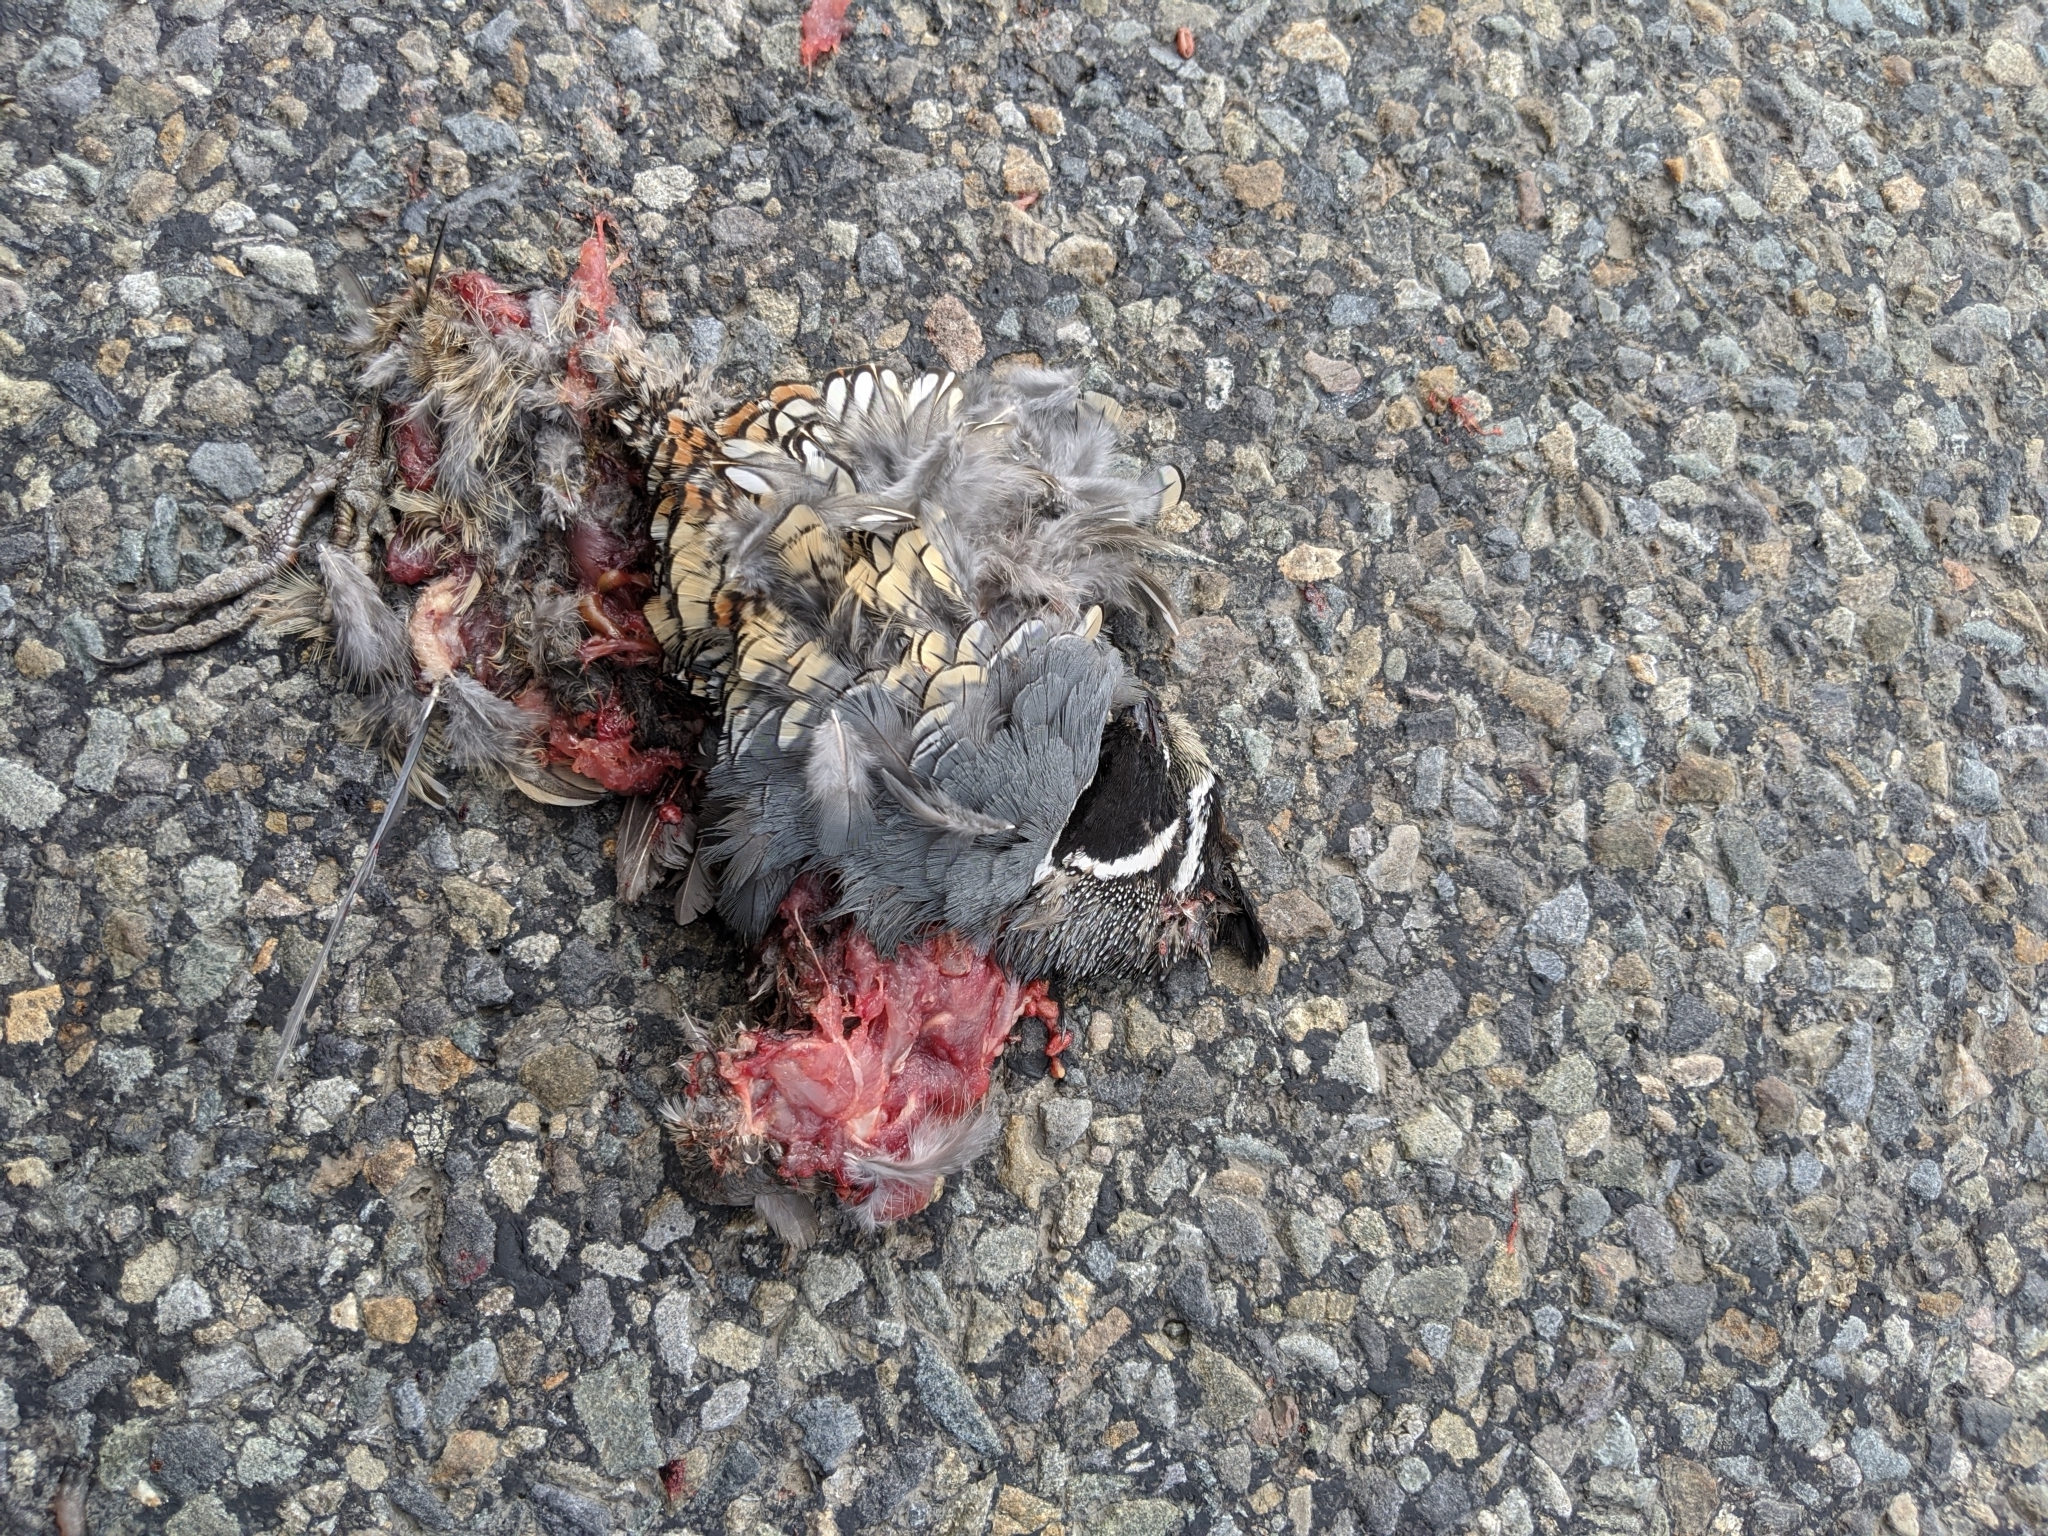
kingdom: Animalia
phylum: Chordata
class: Aves
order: Galliformes
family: Odontophoridae
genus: Callipepla
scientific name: Callipepla californica
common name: California quail
